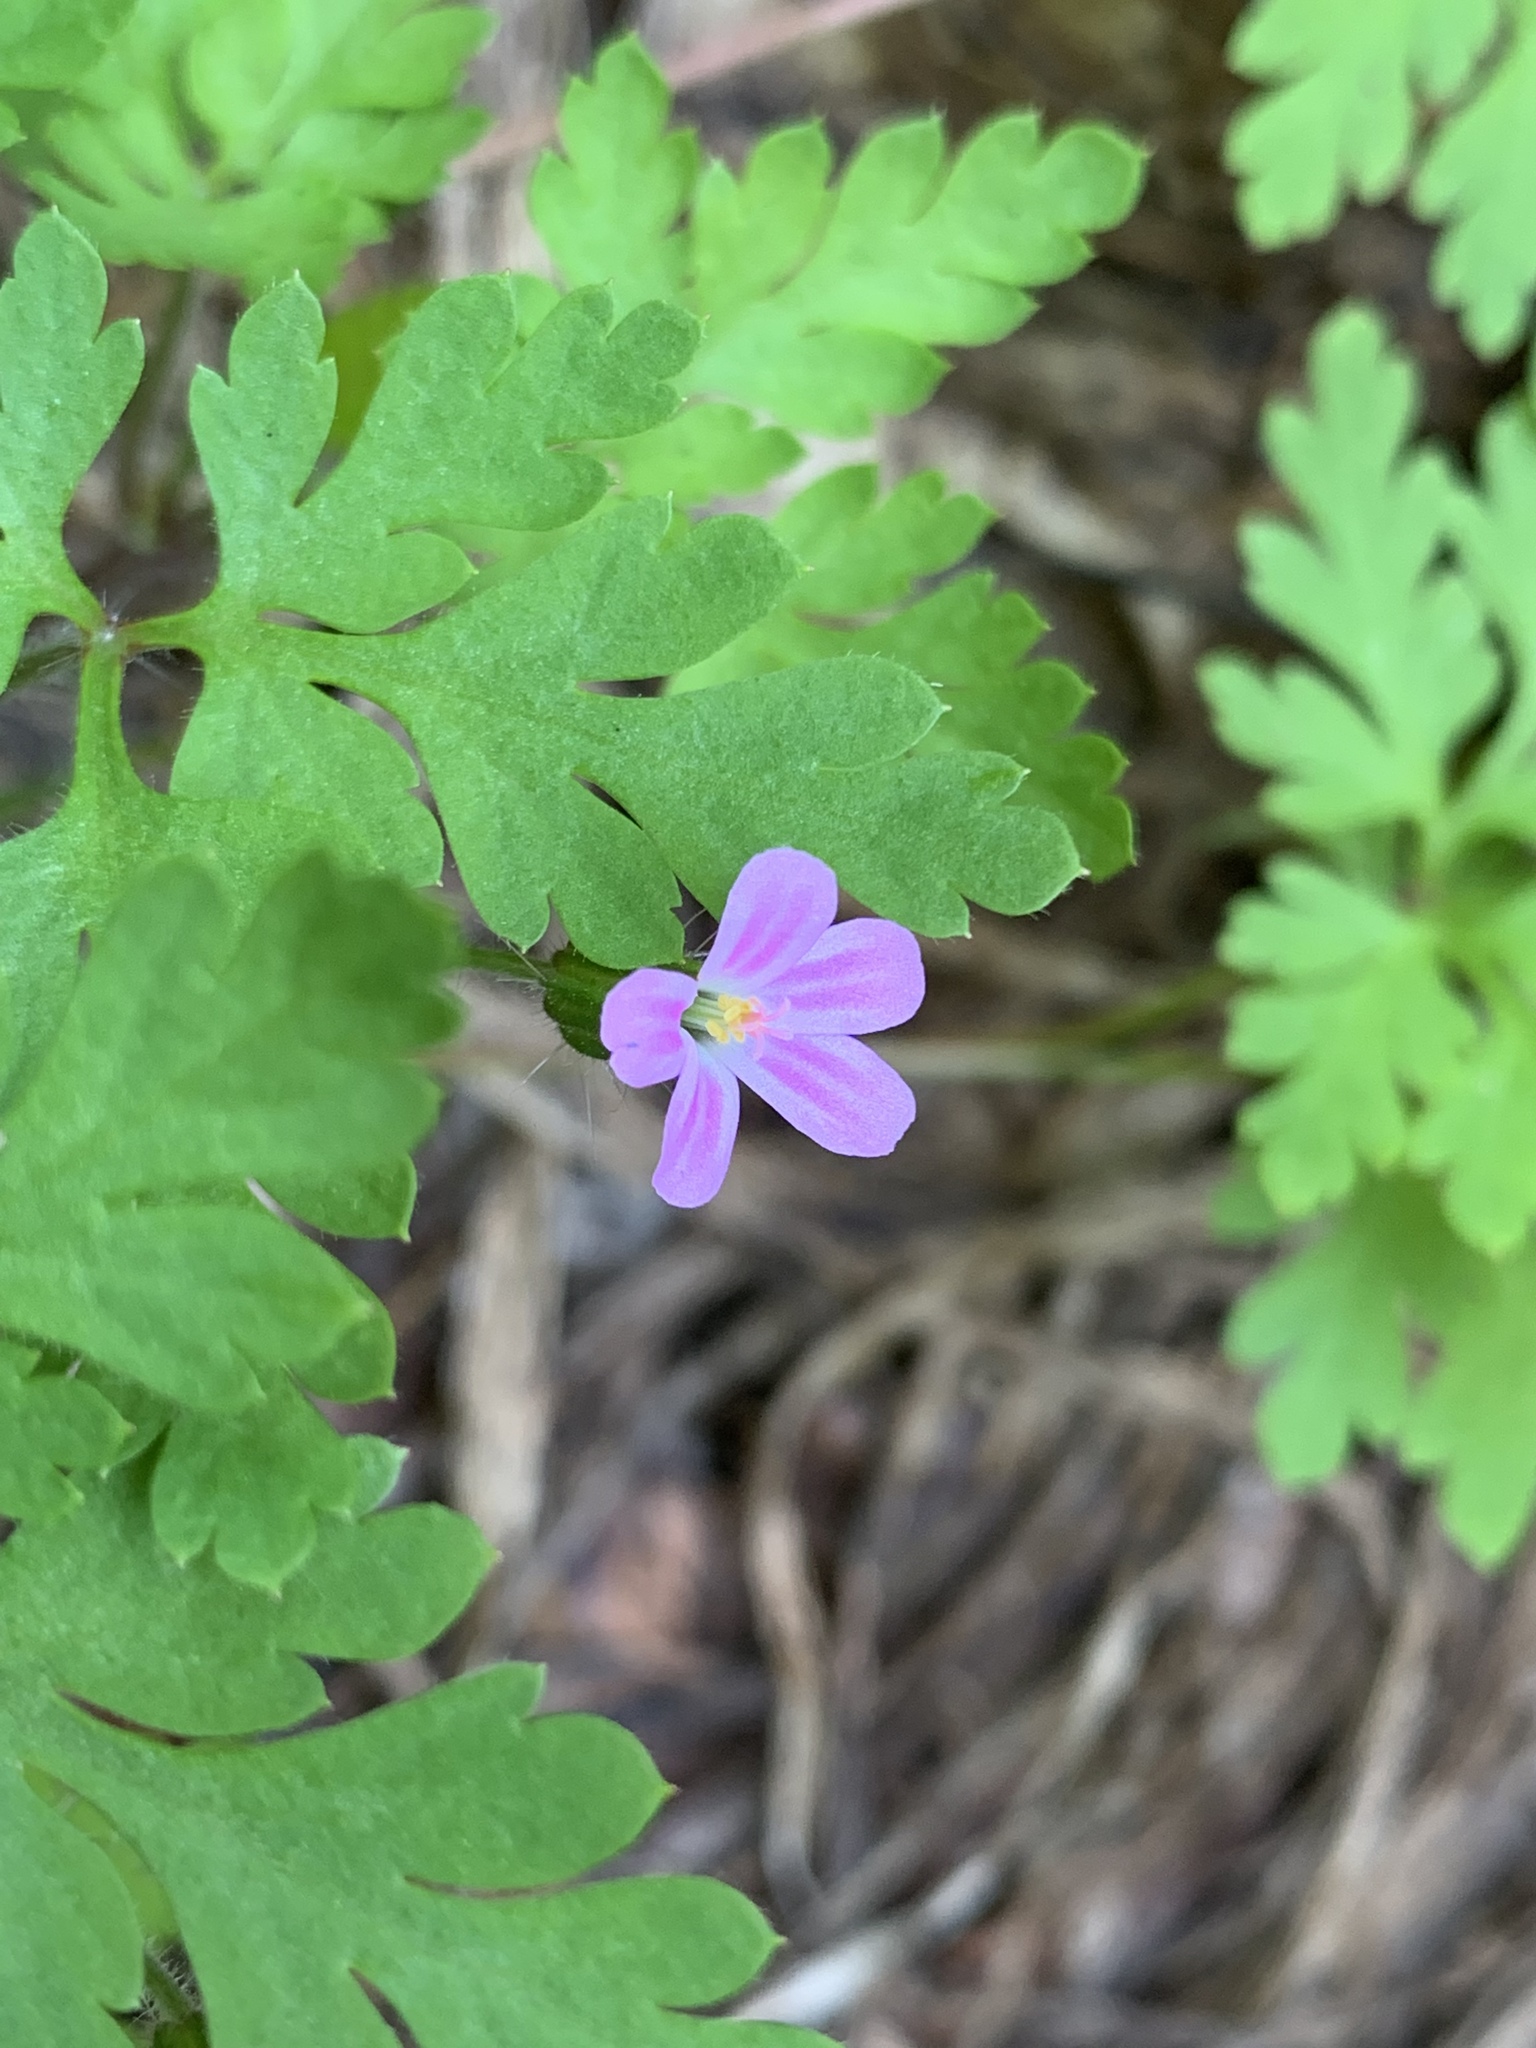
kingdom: Plantae
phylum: Tracheophyta
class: Magnoliopsida
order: Geraniales
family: Geraniaceae
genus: Geranium
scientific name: Geranium robertianum
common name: Herb-robert
